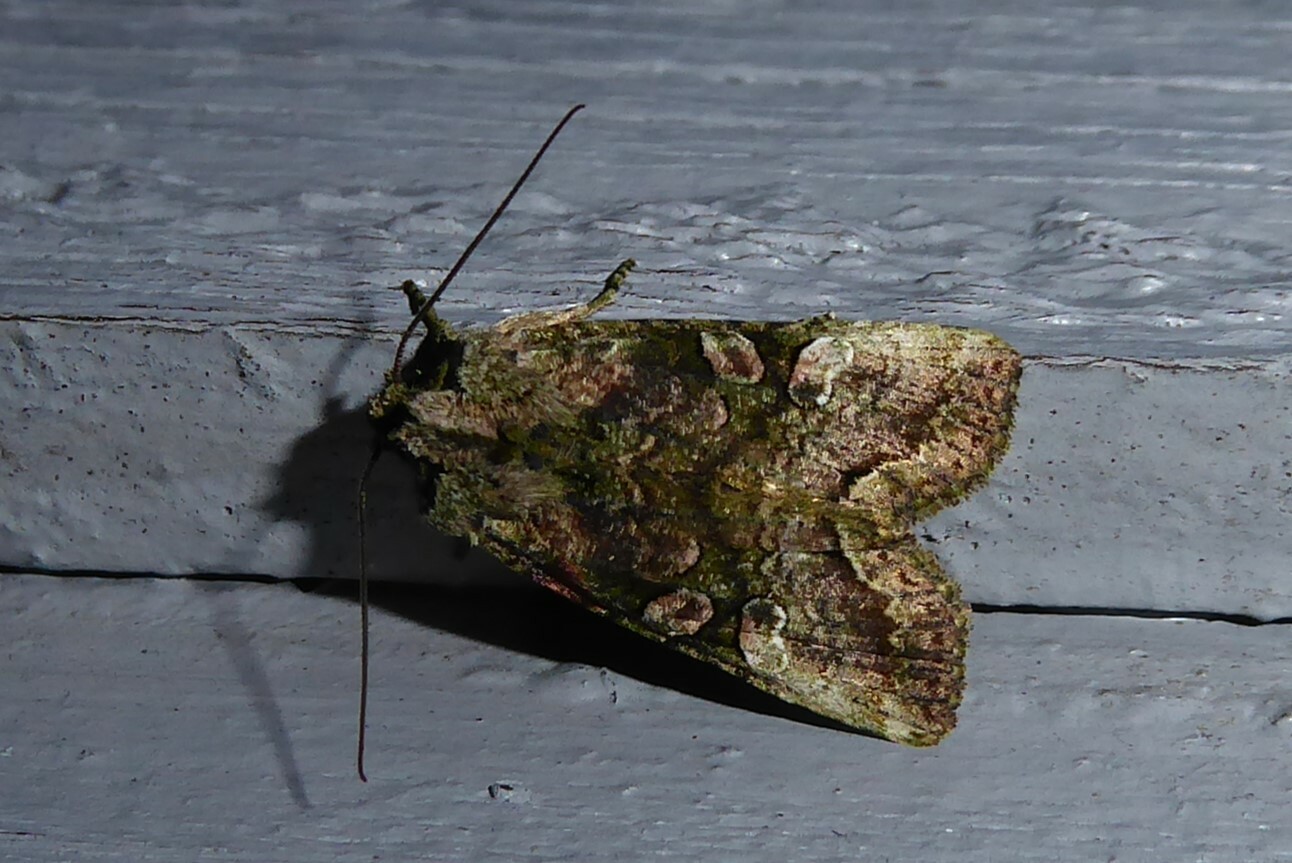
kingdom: Animalia
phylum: Arthropoda
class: Insecta
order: Lepidoptera
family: Noctuidae
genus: Meterana
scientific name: Meterana levis
